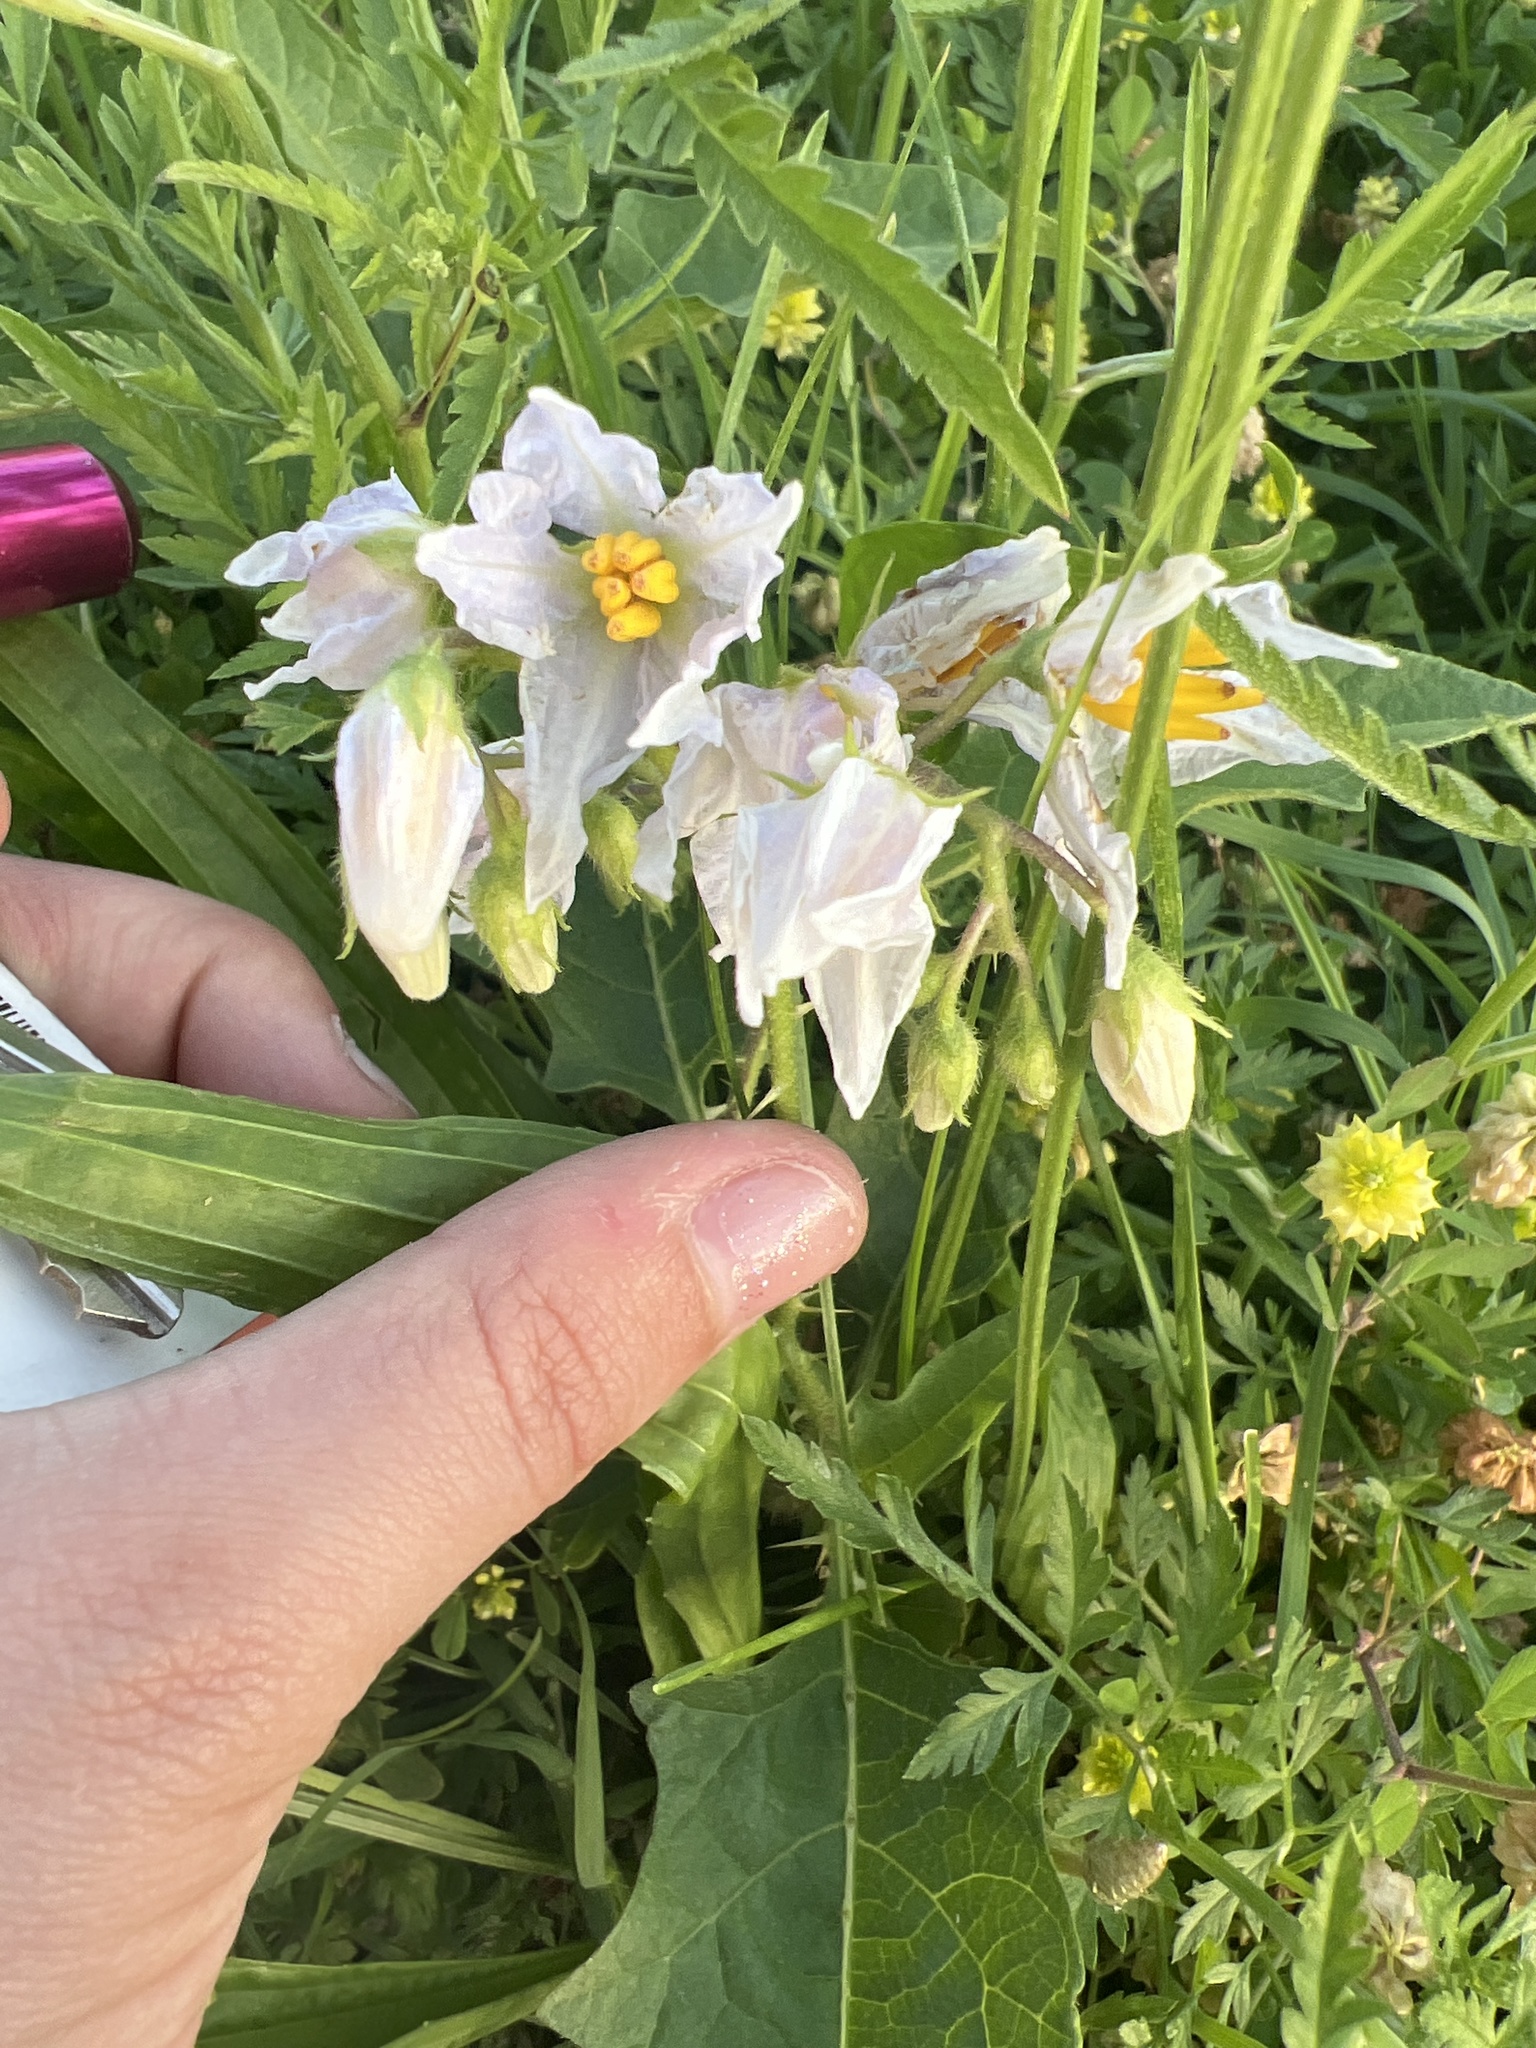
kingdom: Plantae
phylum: Tracheophyta
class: Magnoliopsida
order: Solanales
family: Solanaceae
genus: Solanum
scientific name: Solanum carolinense
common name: Horse-nettle
